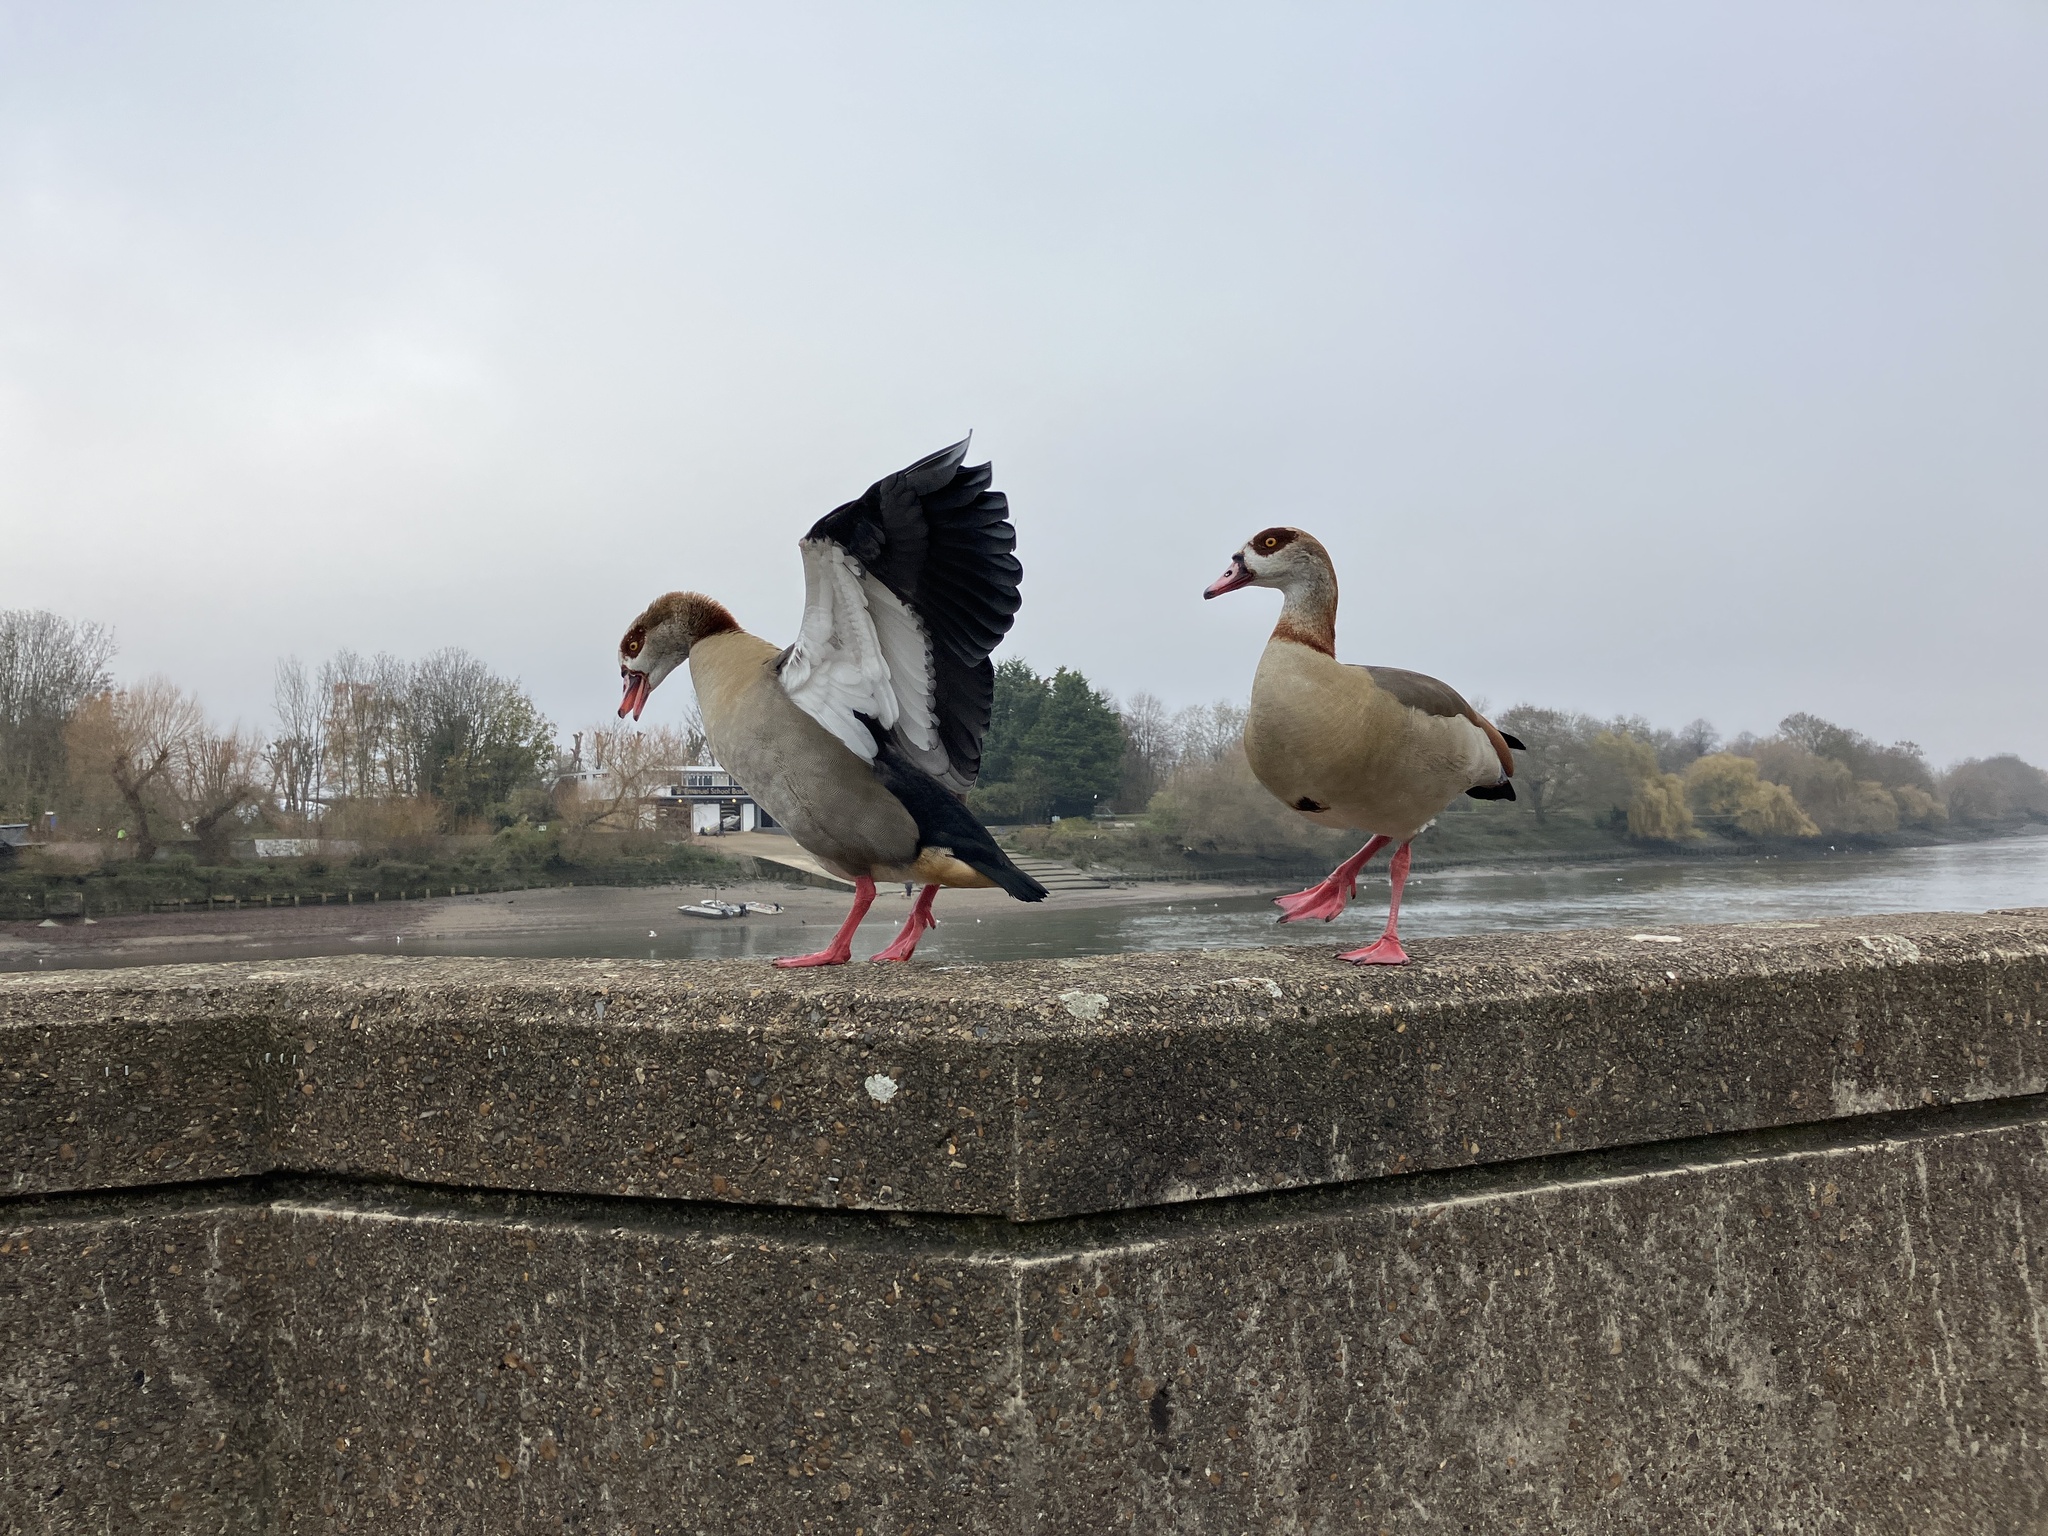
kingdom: Animalia
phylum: Chordata
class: Aves
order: Anseriformes
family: Anatidae
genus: Alopochen
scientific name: Alopochen aegyptiaca
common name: Egyptian goose
